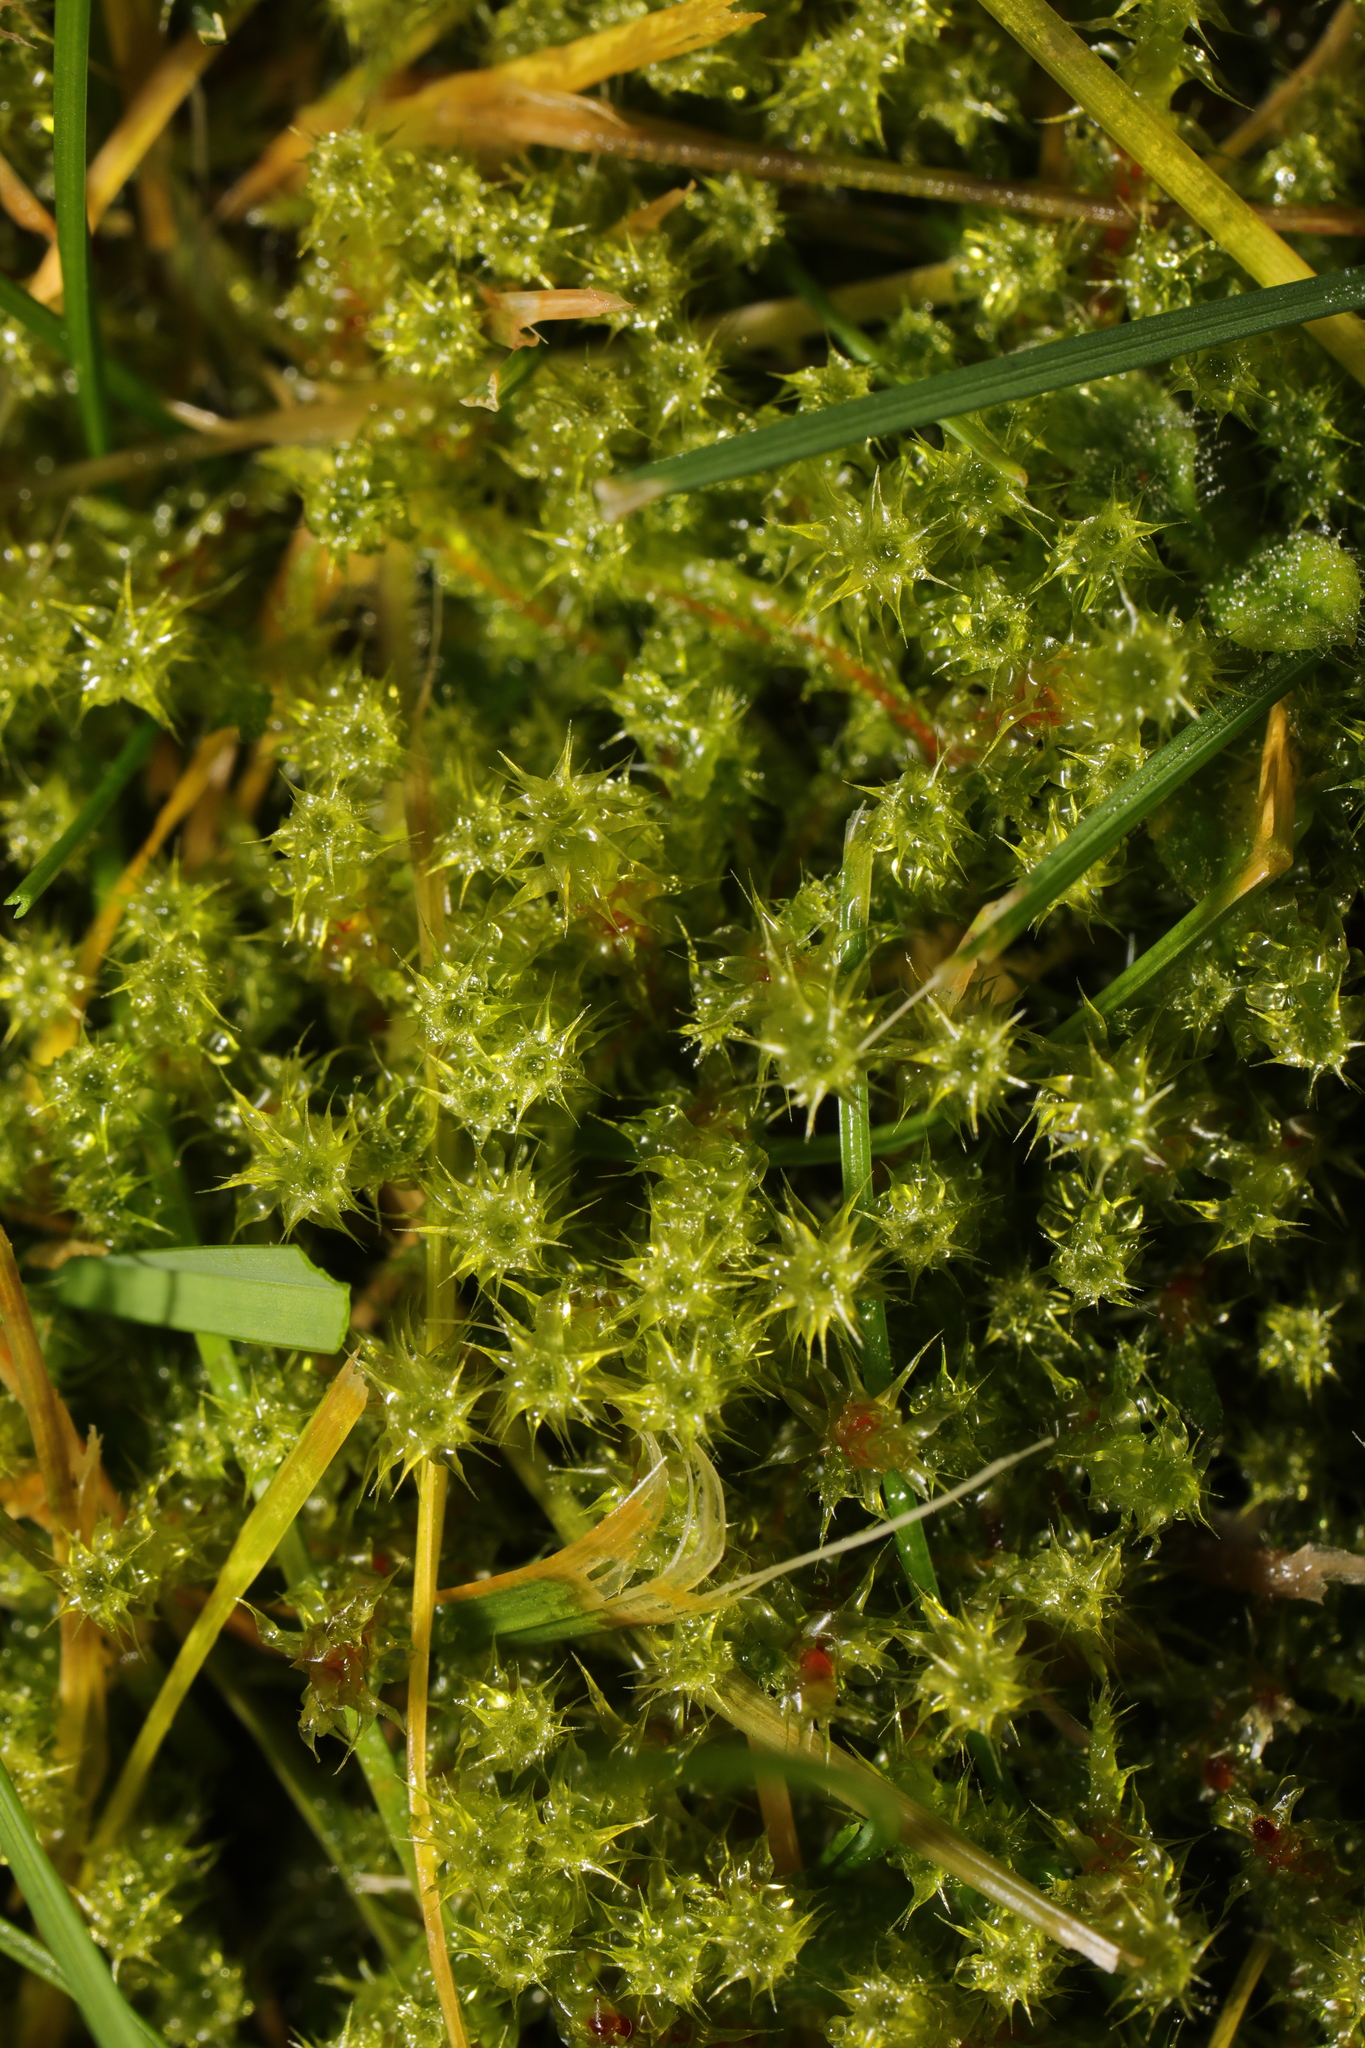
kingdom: Plantae
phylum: Bryophyta
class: Bryopsida
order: Hypnales
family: Hylocomiaceae
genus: Rhytidiadelphus
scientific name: Rhytidiadelphus squarrosus
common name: Springy turf-moss
